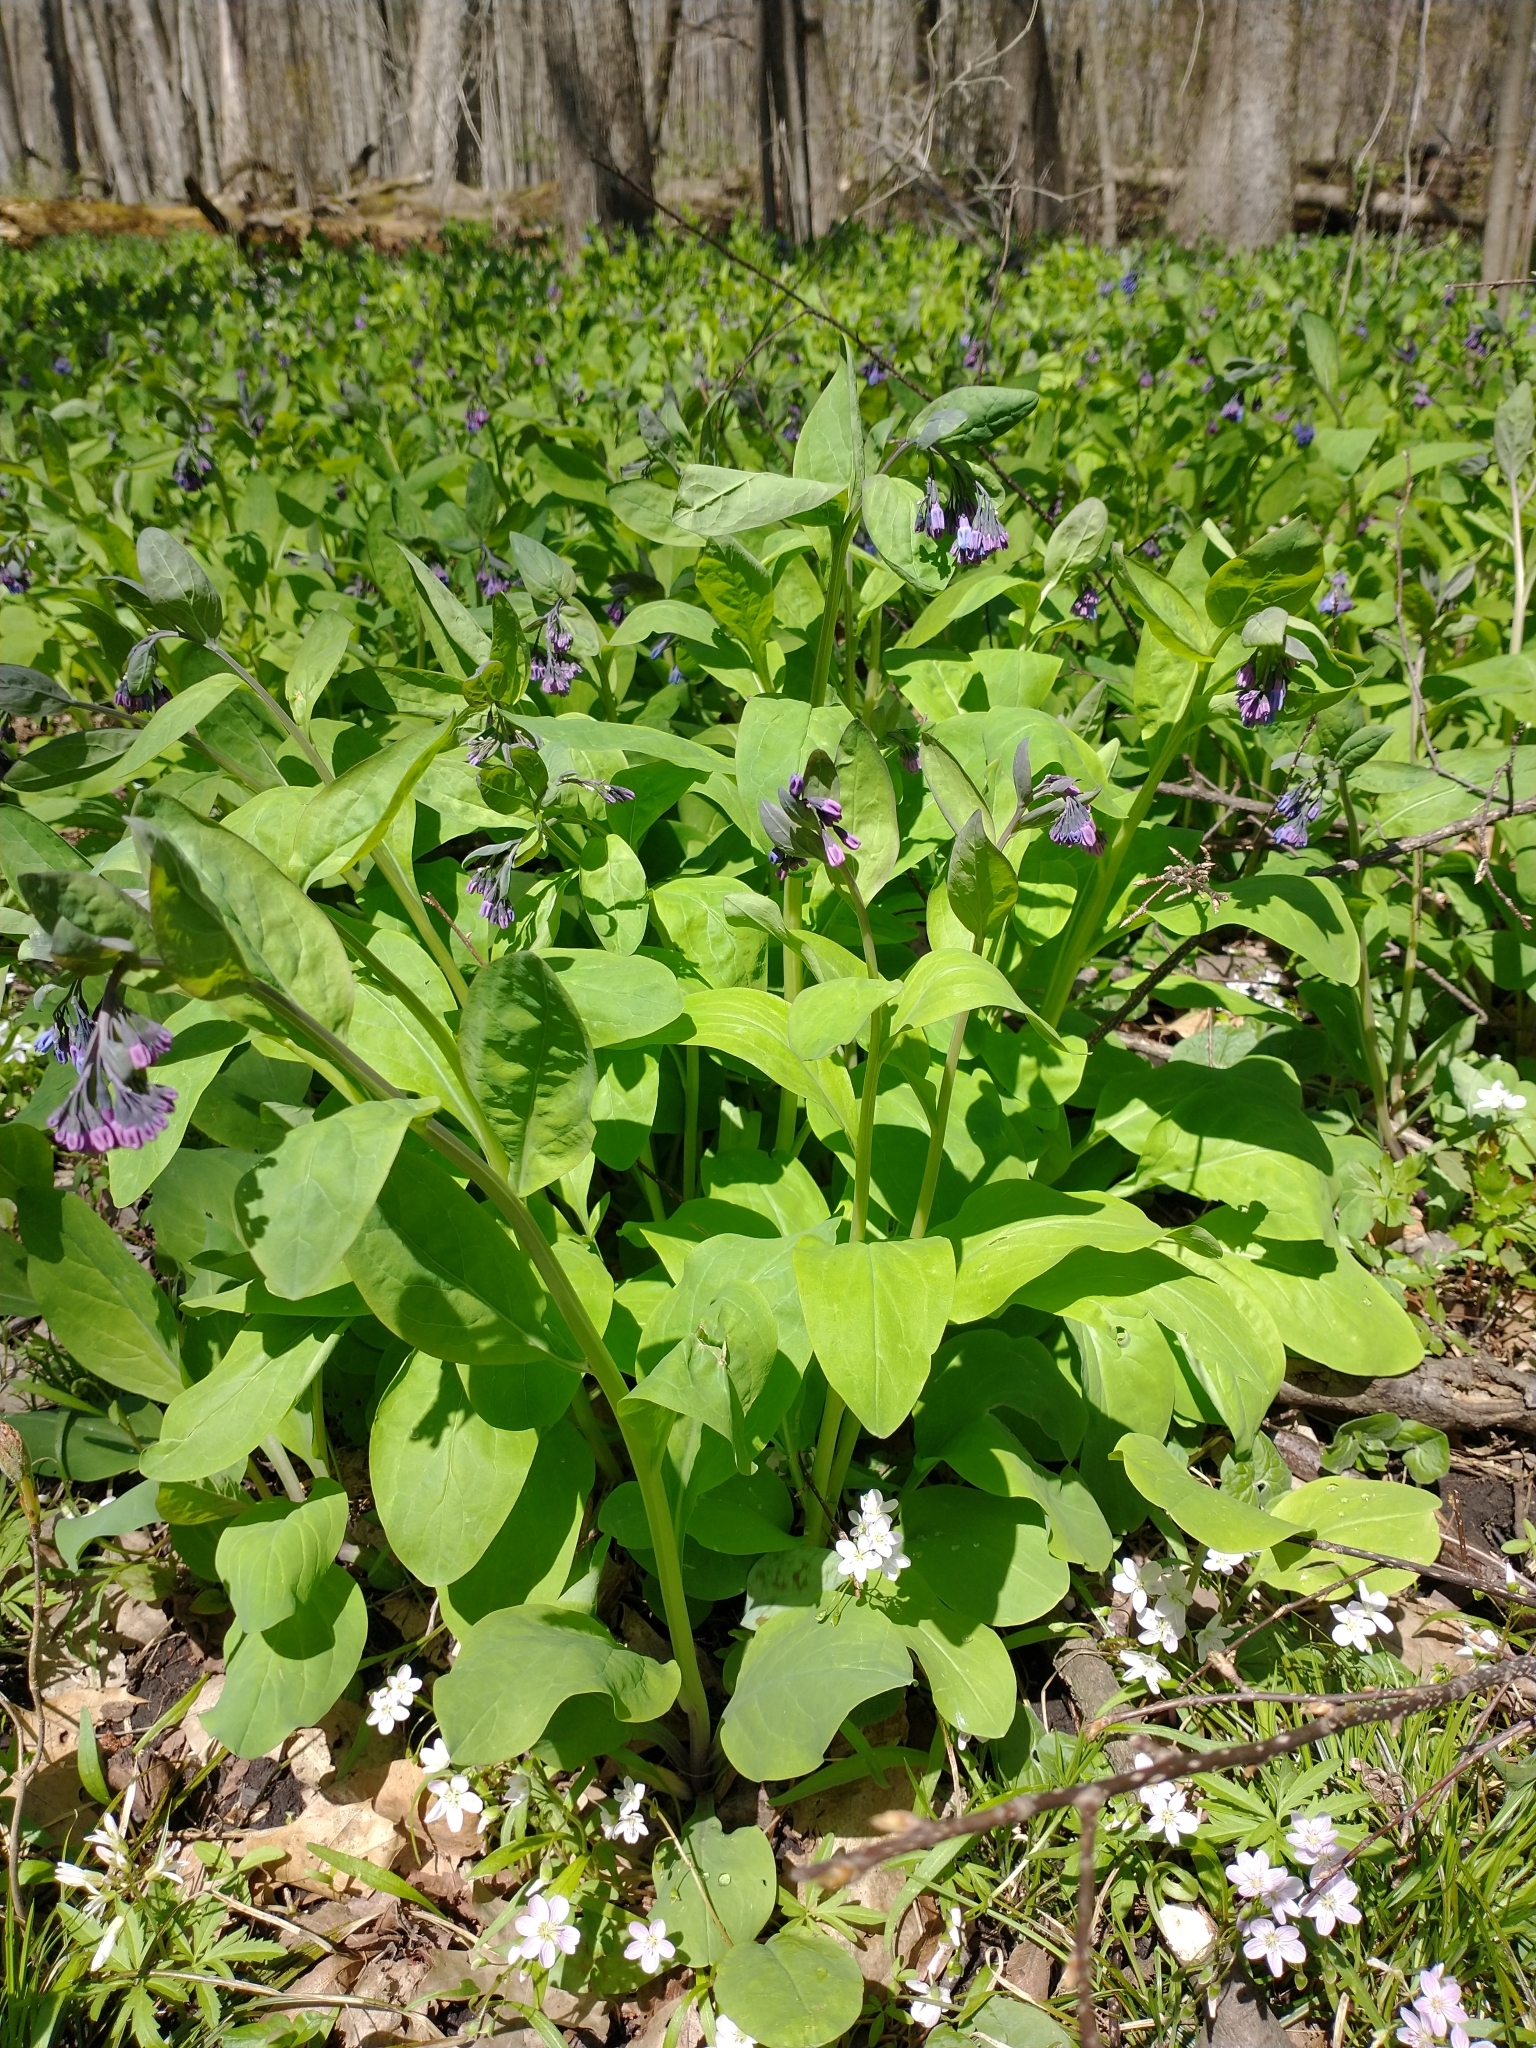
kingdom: Plantae
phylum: Tracheophyta
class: Magnoliopsida
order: Boraginales
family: Boraginaceae
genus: Mertensia
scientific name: Mertensia virginica
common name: Virginia bluebells
